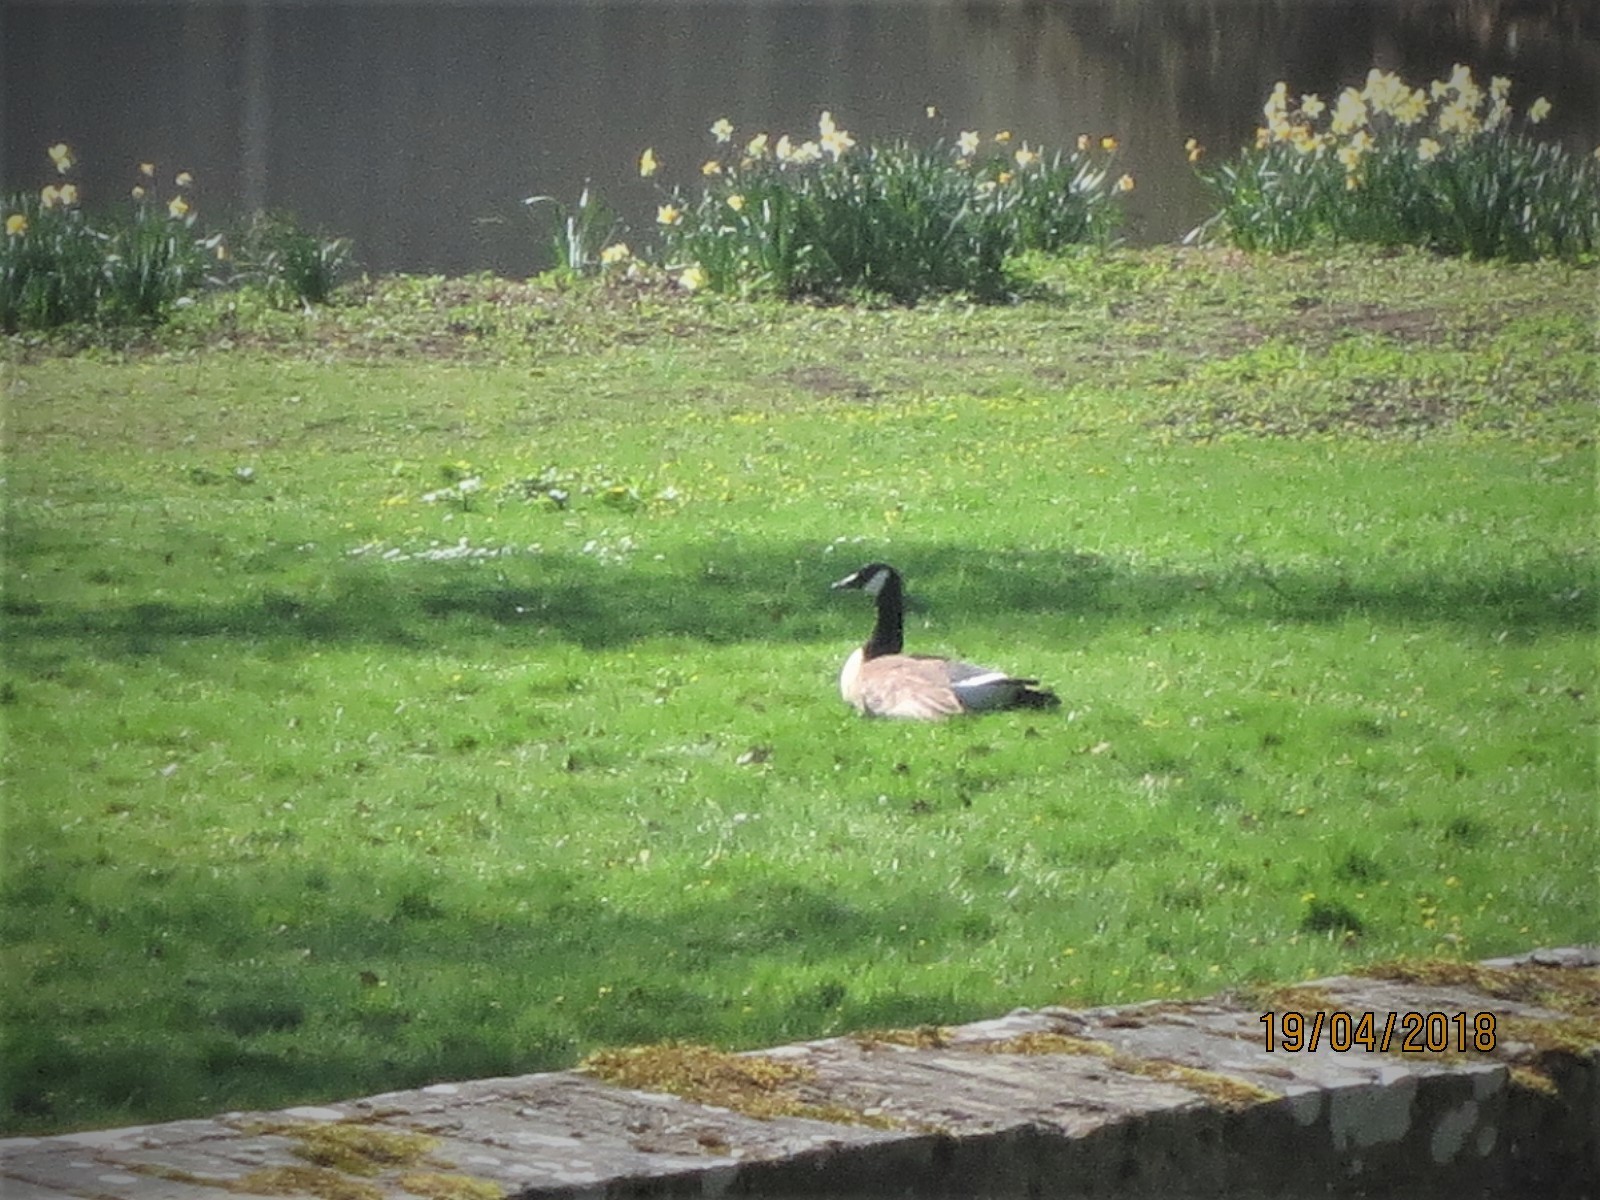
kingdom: Animalia
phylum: Chordata
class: Aves
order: Anseriformes
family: Anatidae
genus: Branta
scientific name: Branta canadensis
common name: Canada goose
